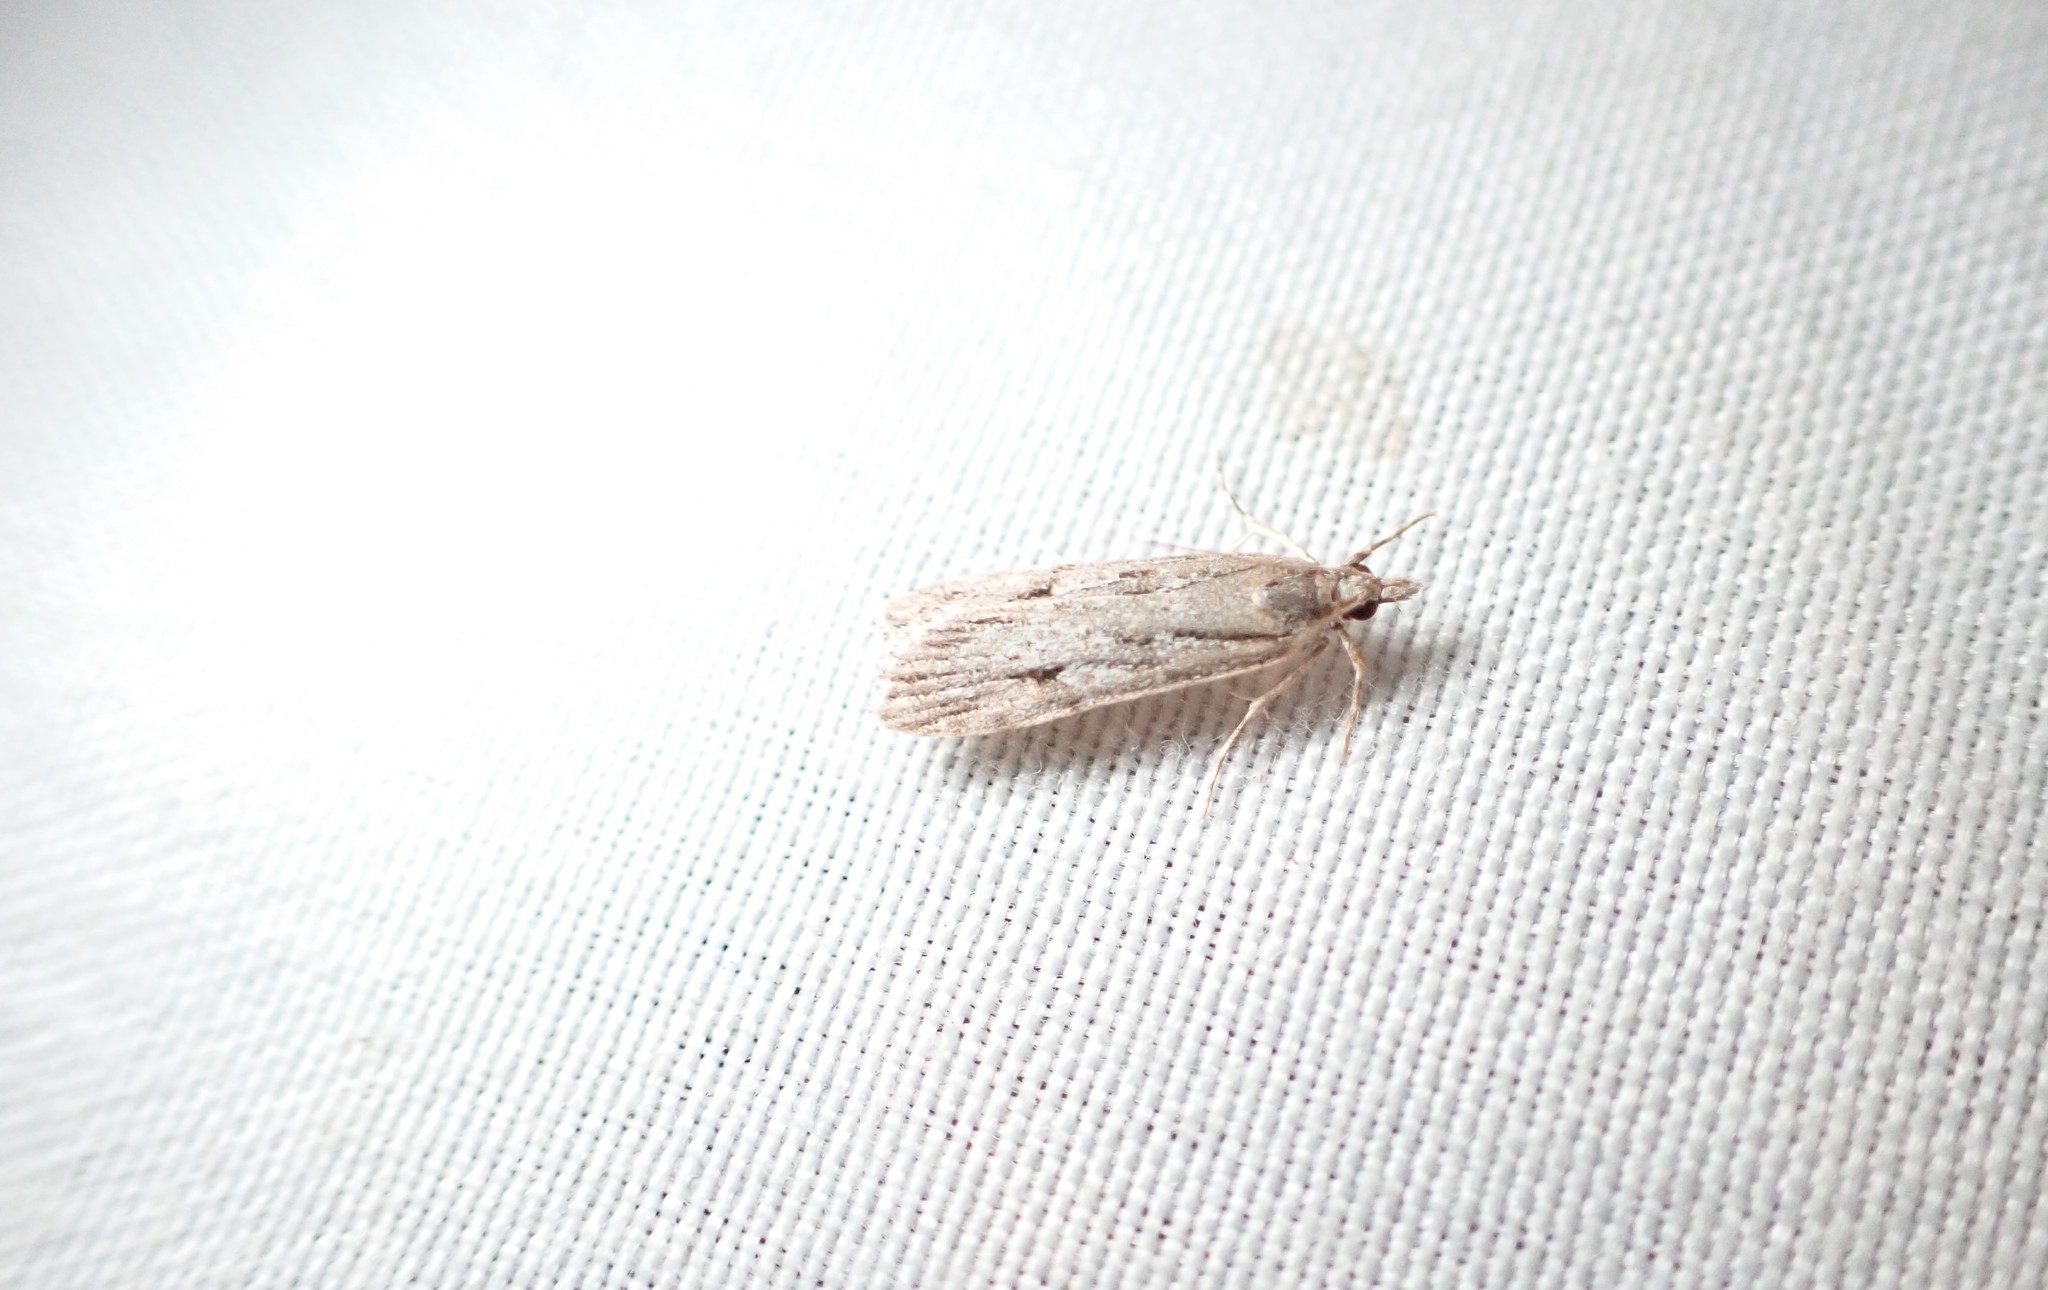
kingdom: Animalia
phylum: Arthropoda
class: Insecta
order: Lepidoptera
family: Crambidae
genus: Eudonia
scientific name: Eudonia bisinualis
